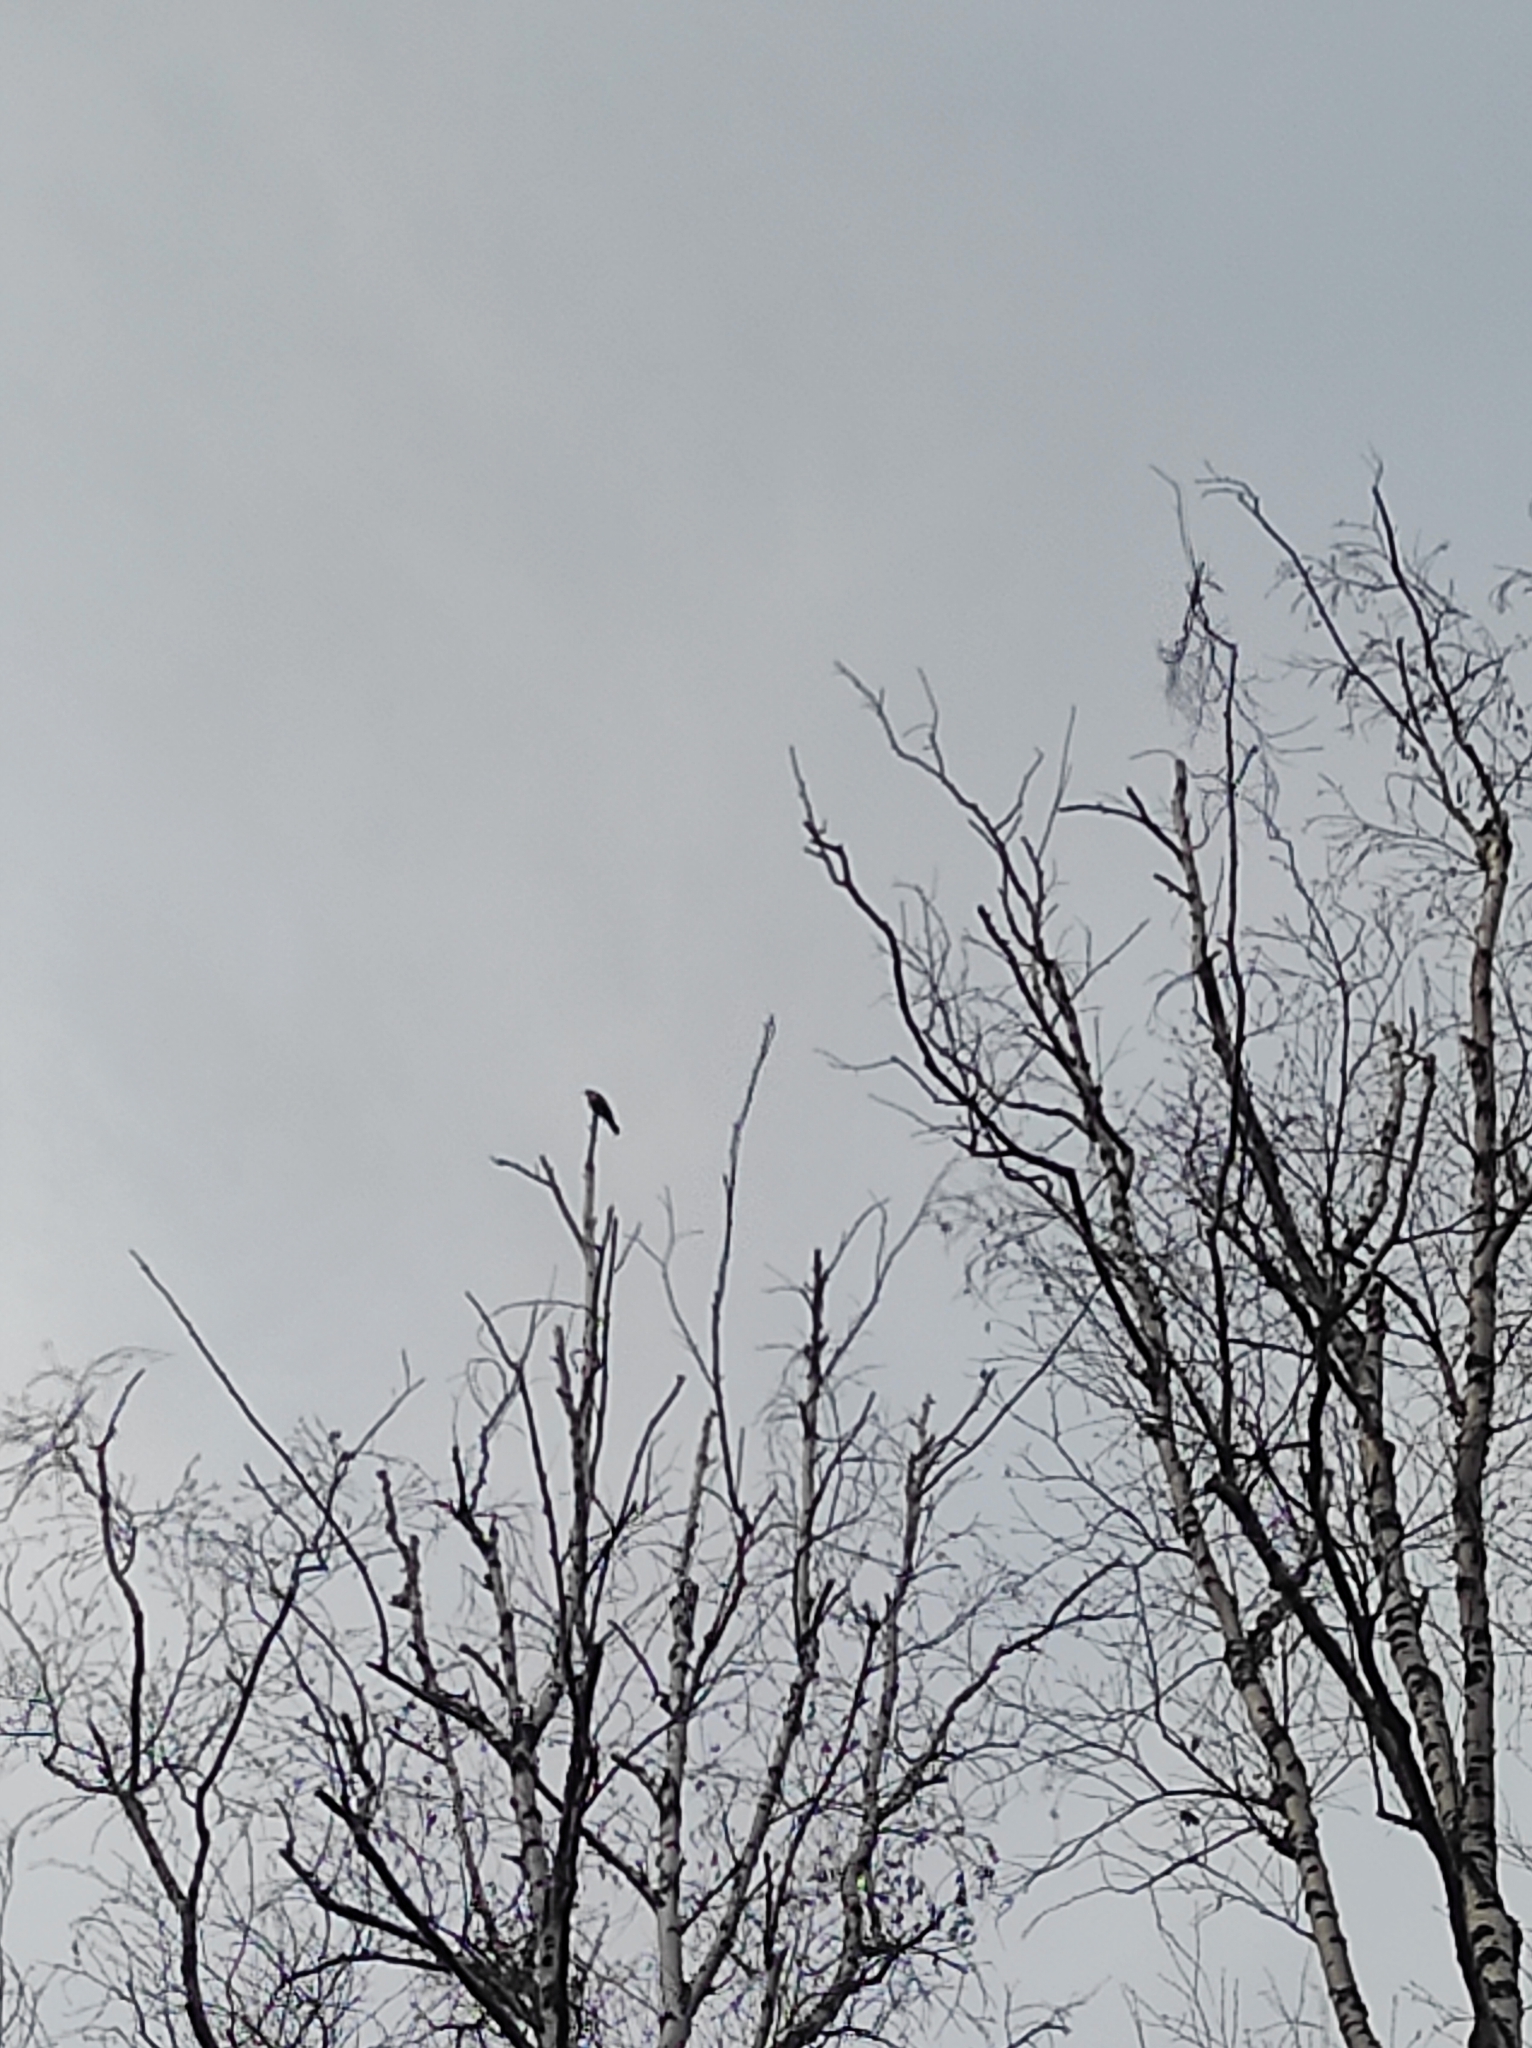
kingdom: Animalia
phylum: Chordata
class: Aves
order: Passeriformes
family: Turdidae
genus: Turdus
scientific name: Turdus philomelos
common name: Song thrush
